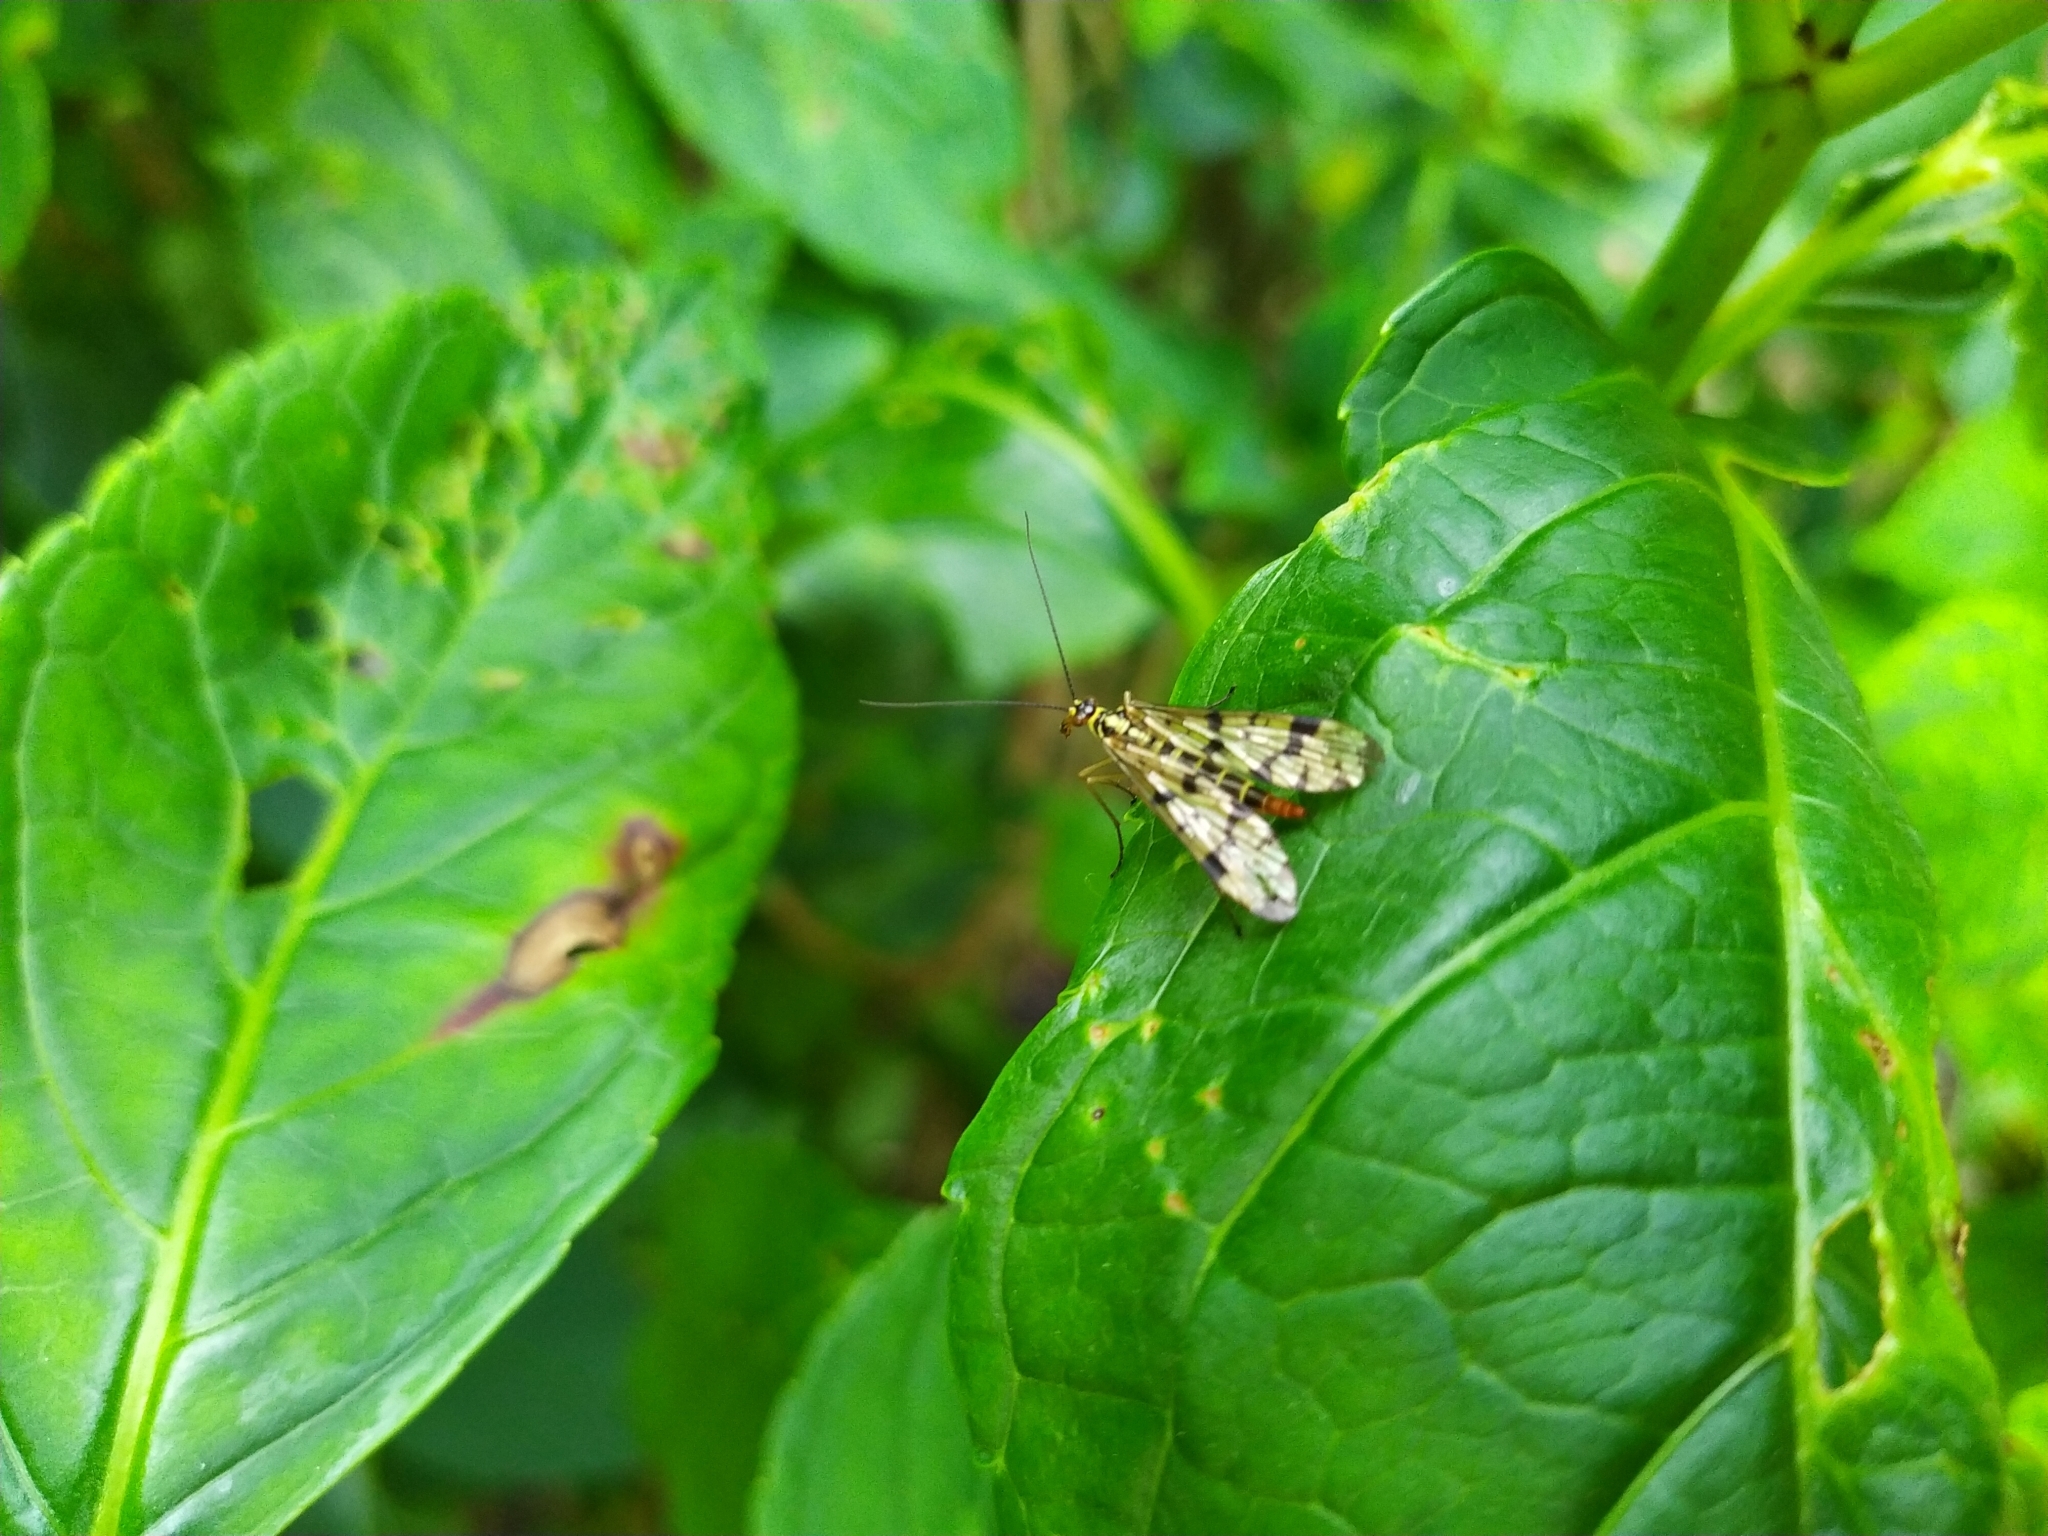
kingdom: Animalia
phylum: Arthropoda
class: Insecta
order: Mecoptera
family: Panorpidae
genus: Panorpa
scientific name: Panorpa germanica
